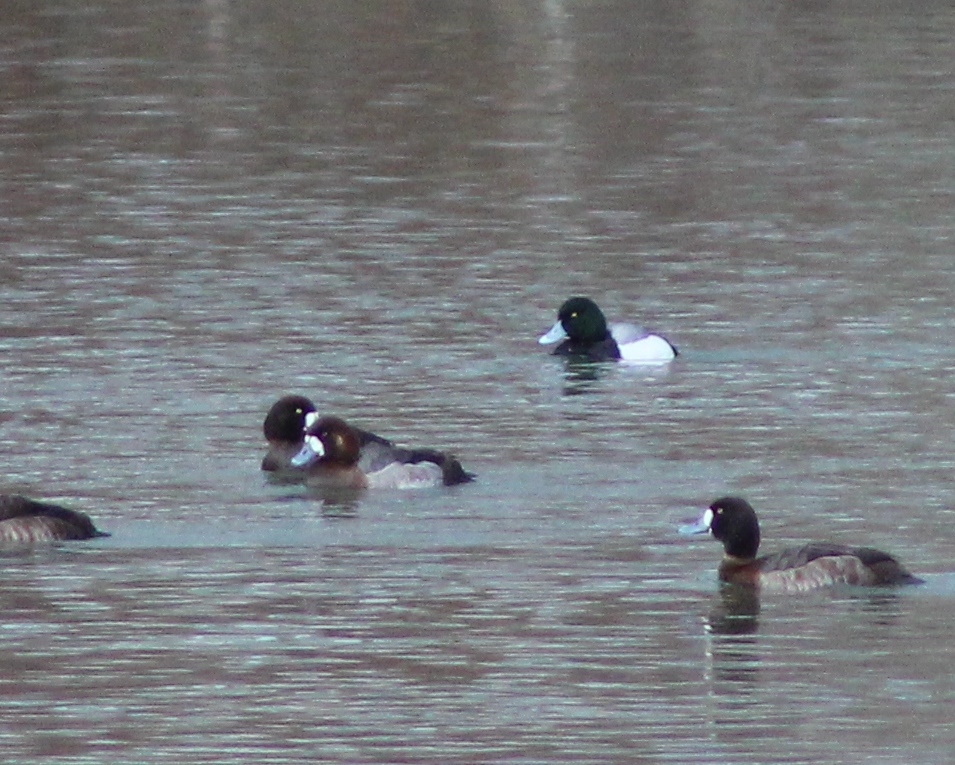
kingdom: Animalia
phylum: Chordata
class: Aves
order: Anseriformes
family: Anatidae
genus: Aythya
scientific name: Aythya marila
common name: Greater scaup
